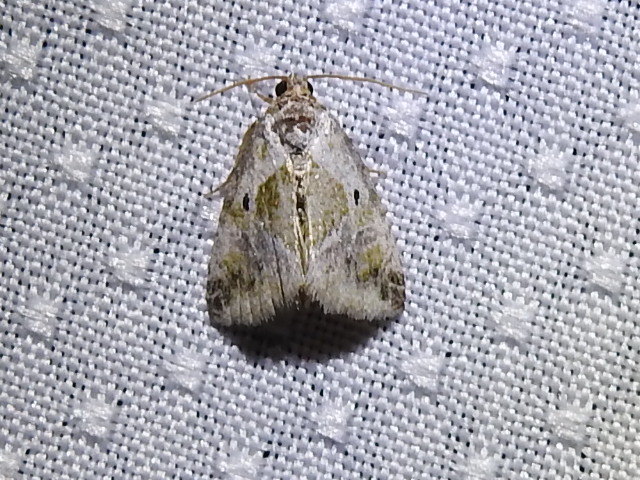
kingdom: Animalia
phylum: Arthropoda
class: Insecta
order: Lepidoptera
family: Noctuidae
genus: Maliattha
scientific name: Maliattha synochitis
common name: Black-dotted glyph
